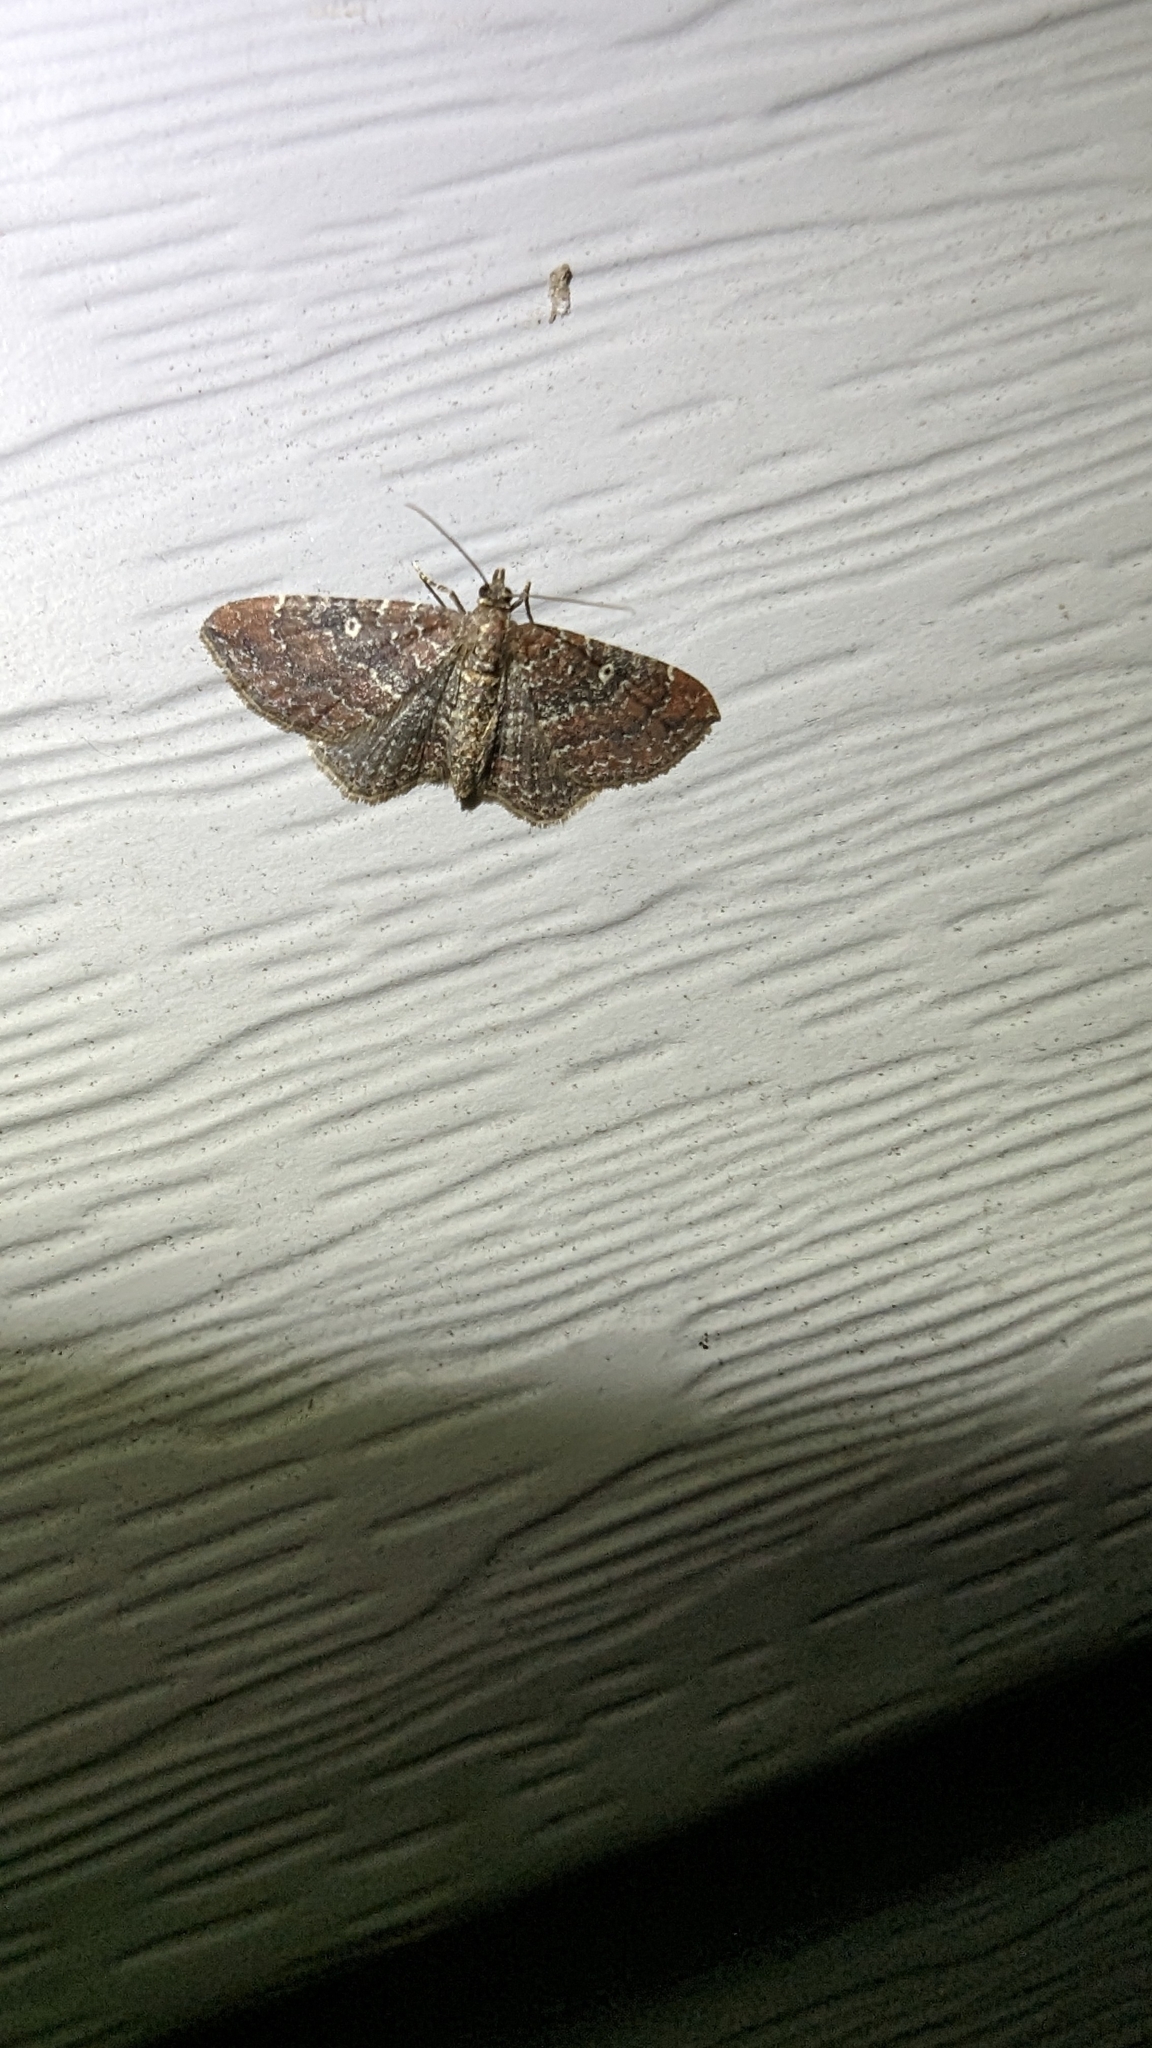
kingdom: Animalia
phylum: Arthropoda
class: Insecta
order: Lepidoptera
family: Geometridae
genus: Orthonama
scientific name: Orthonama obstipata
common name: The gem
